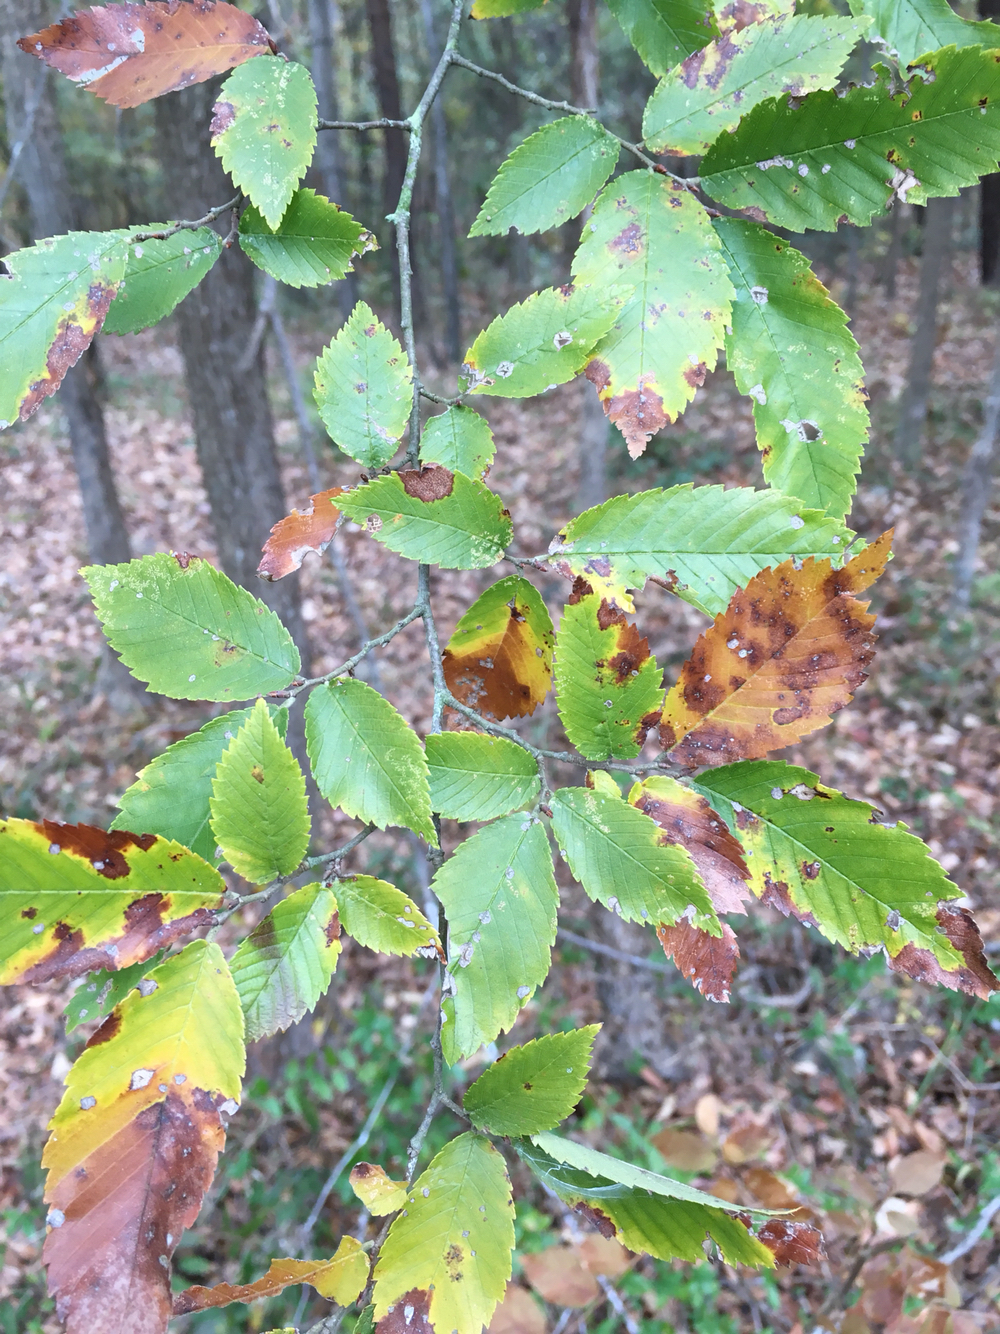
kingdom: Plantae
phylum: Tracheophyta
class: Magnoliopsida
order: Rosales
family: Ulmaceae
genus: Ulmus
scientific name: Ulmus alata
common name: Winged elm
